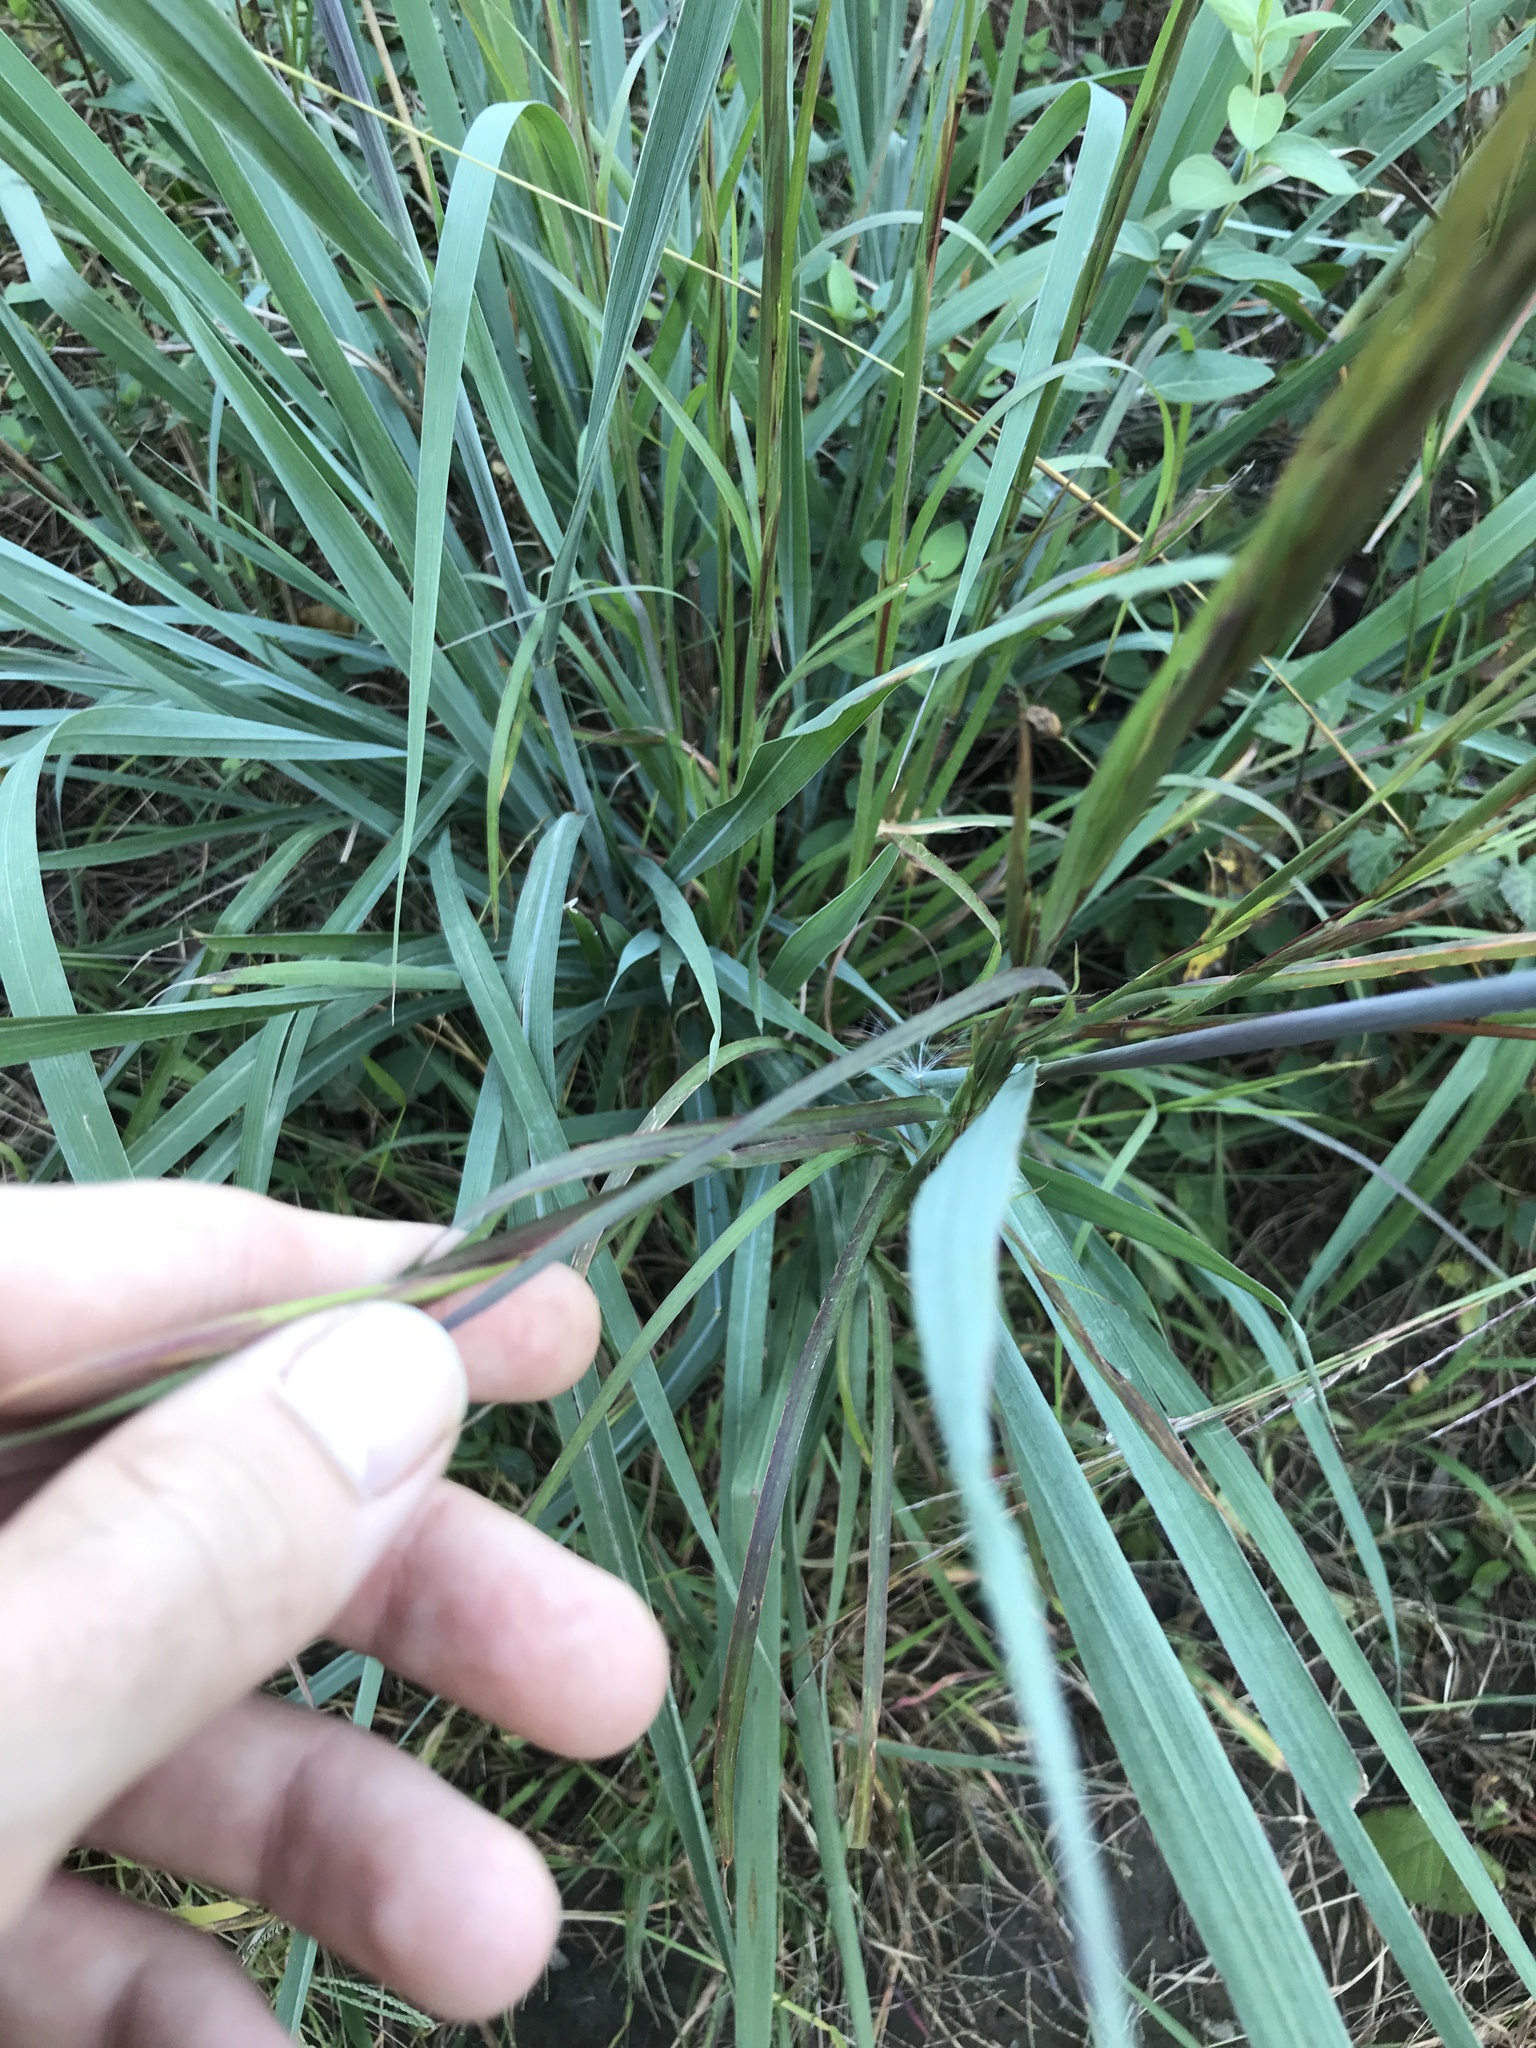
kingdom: Plantae
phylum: Tracheophyta
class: Liliopsida
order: Poales
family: Poaceae
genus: Sorghastrum
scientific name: Sorghastrum nutans
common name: Indian grass
